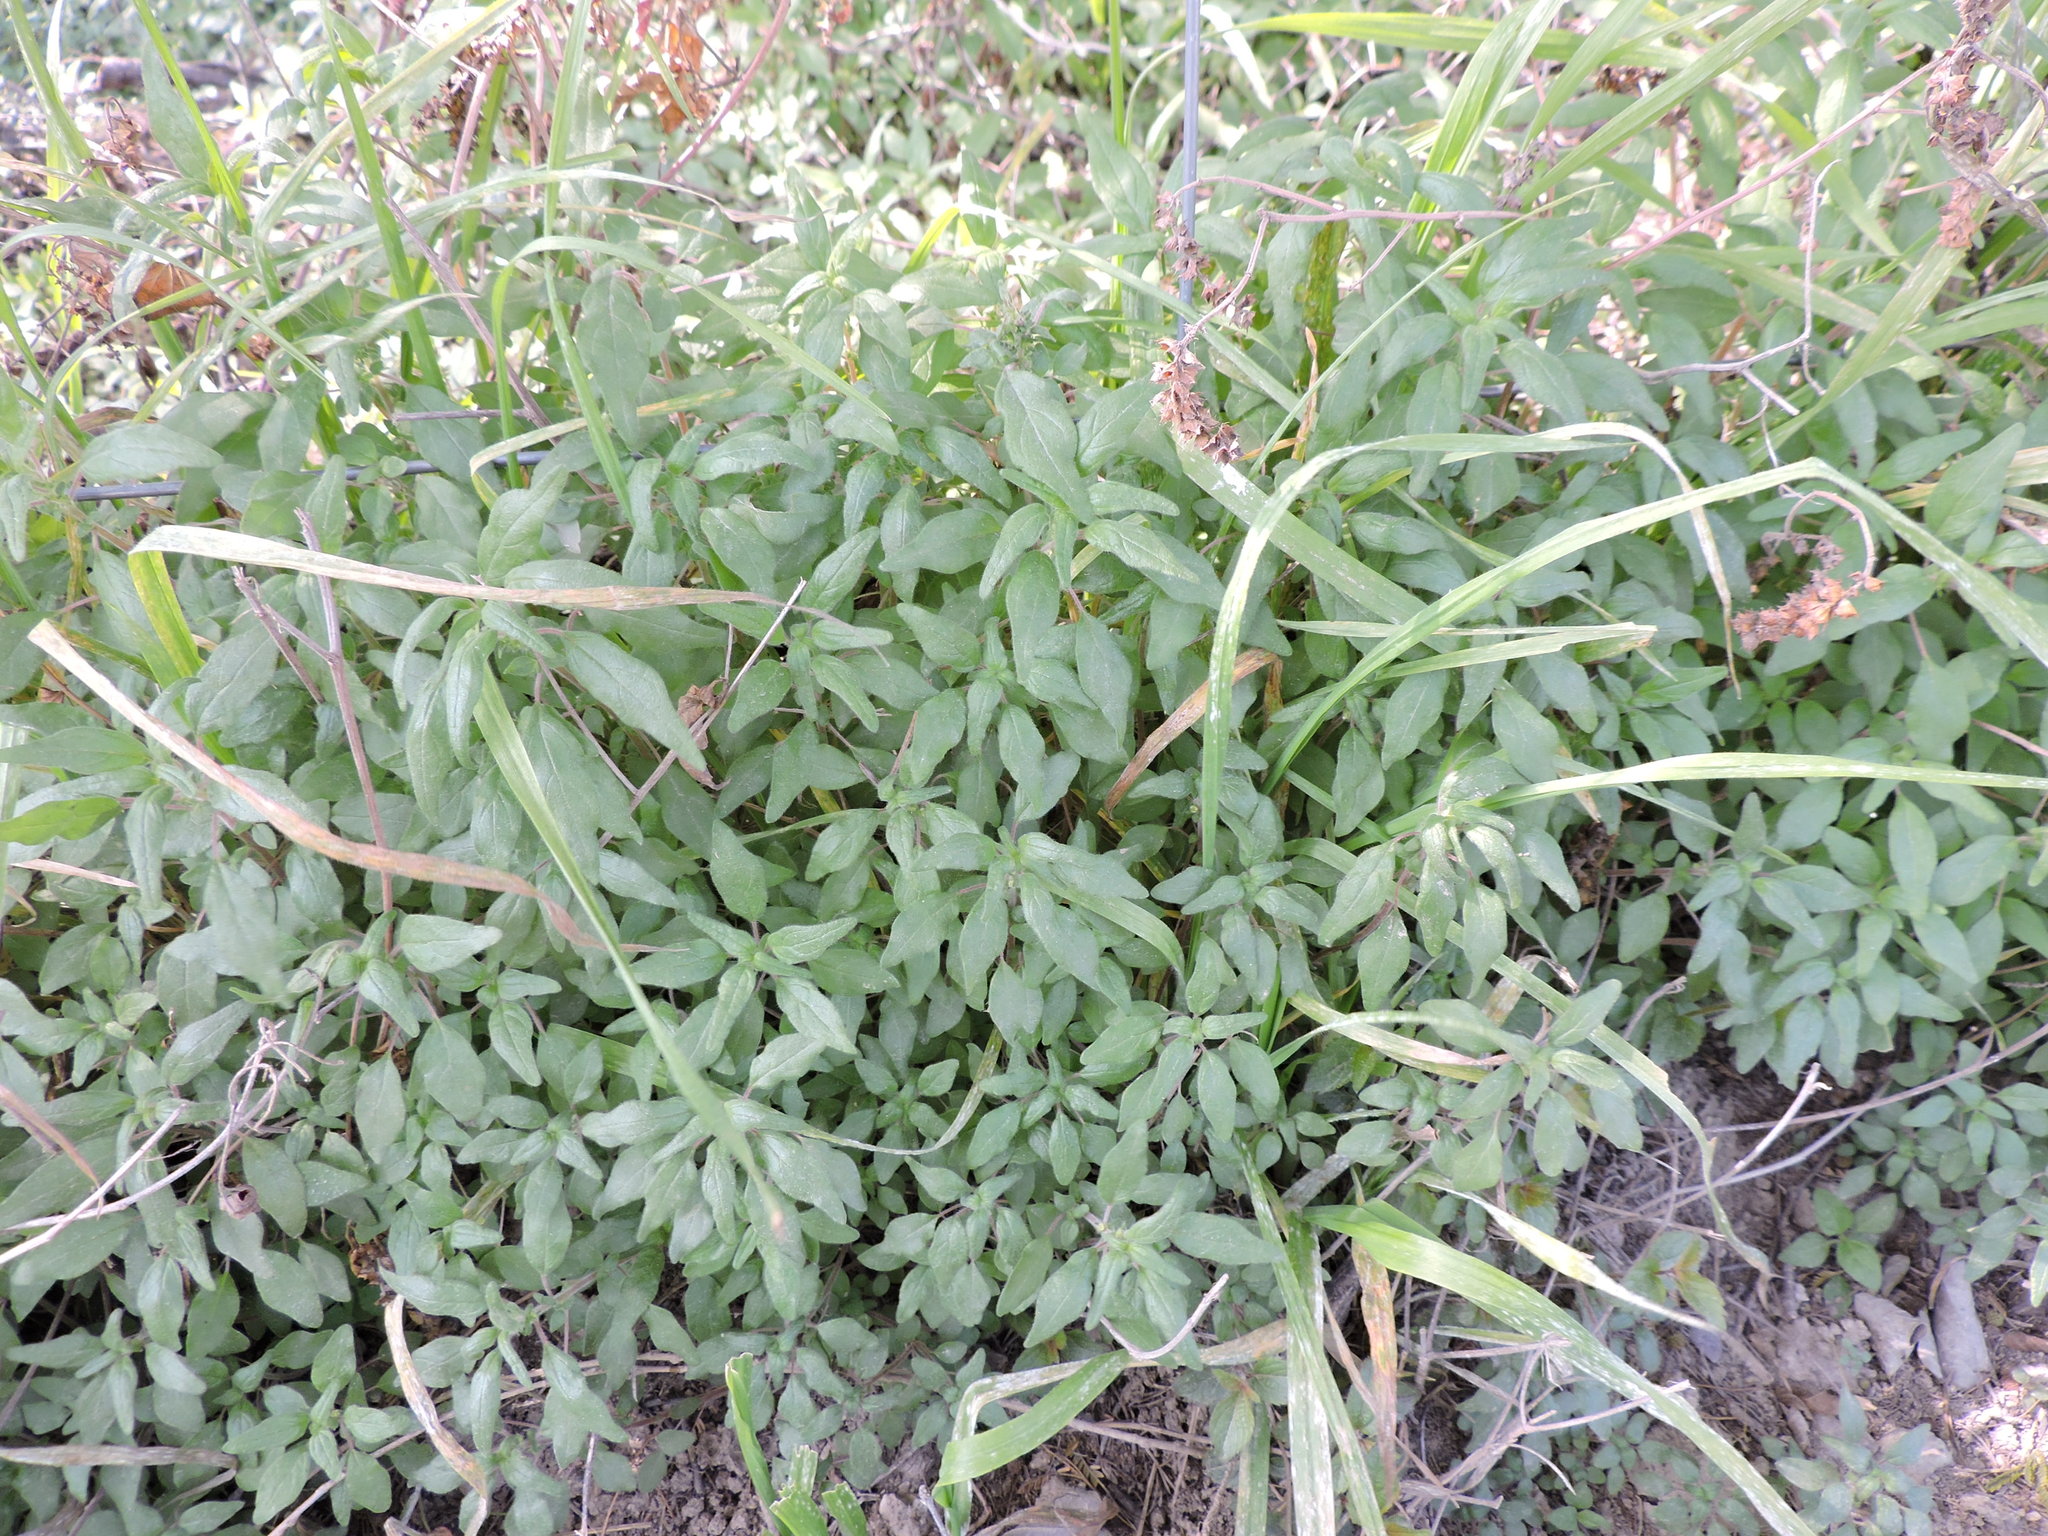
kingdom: Plantae
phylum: Tracheophyta
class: Magnoliopsida
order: Rosales
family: Urticaceae
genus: Parietaria
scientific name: Parietaria pensylvanica
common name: Pennsylvania pellitory
